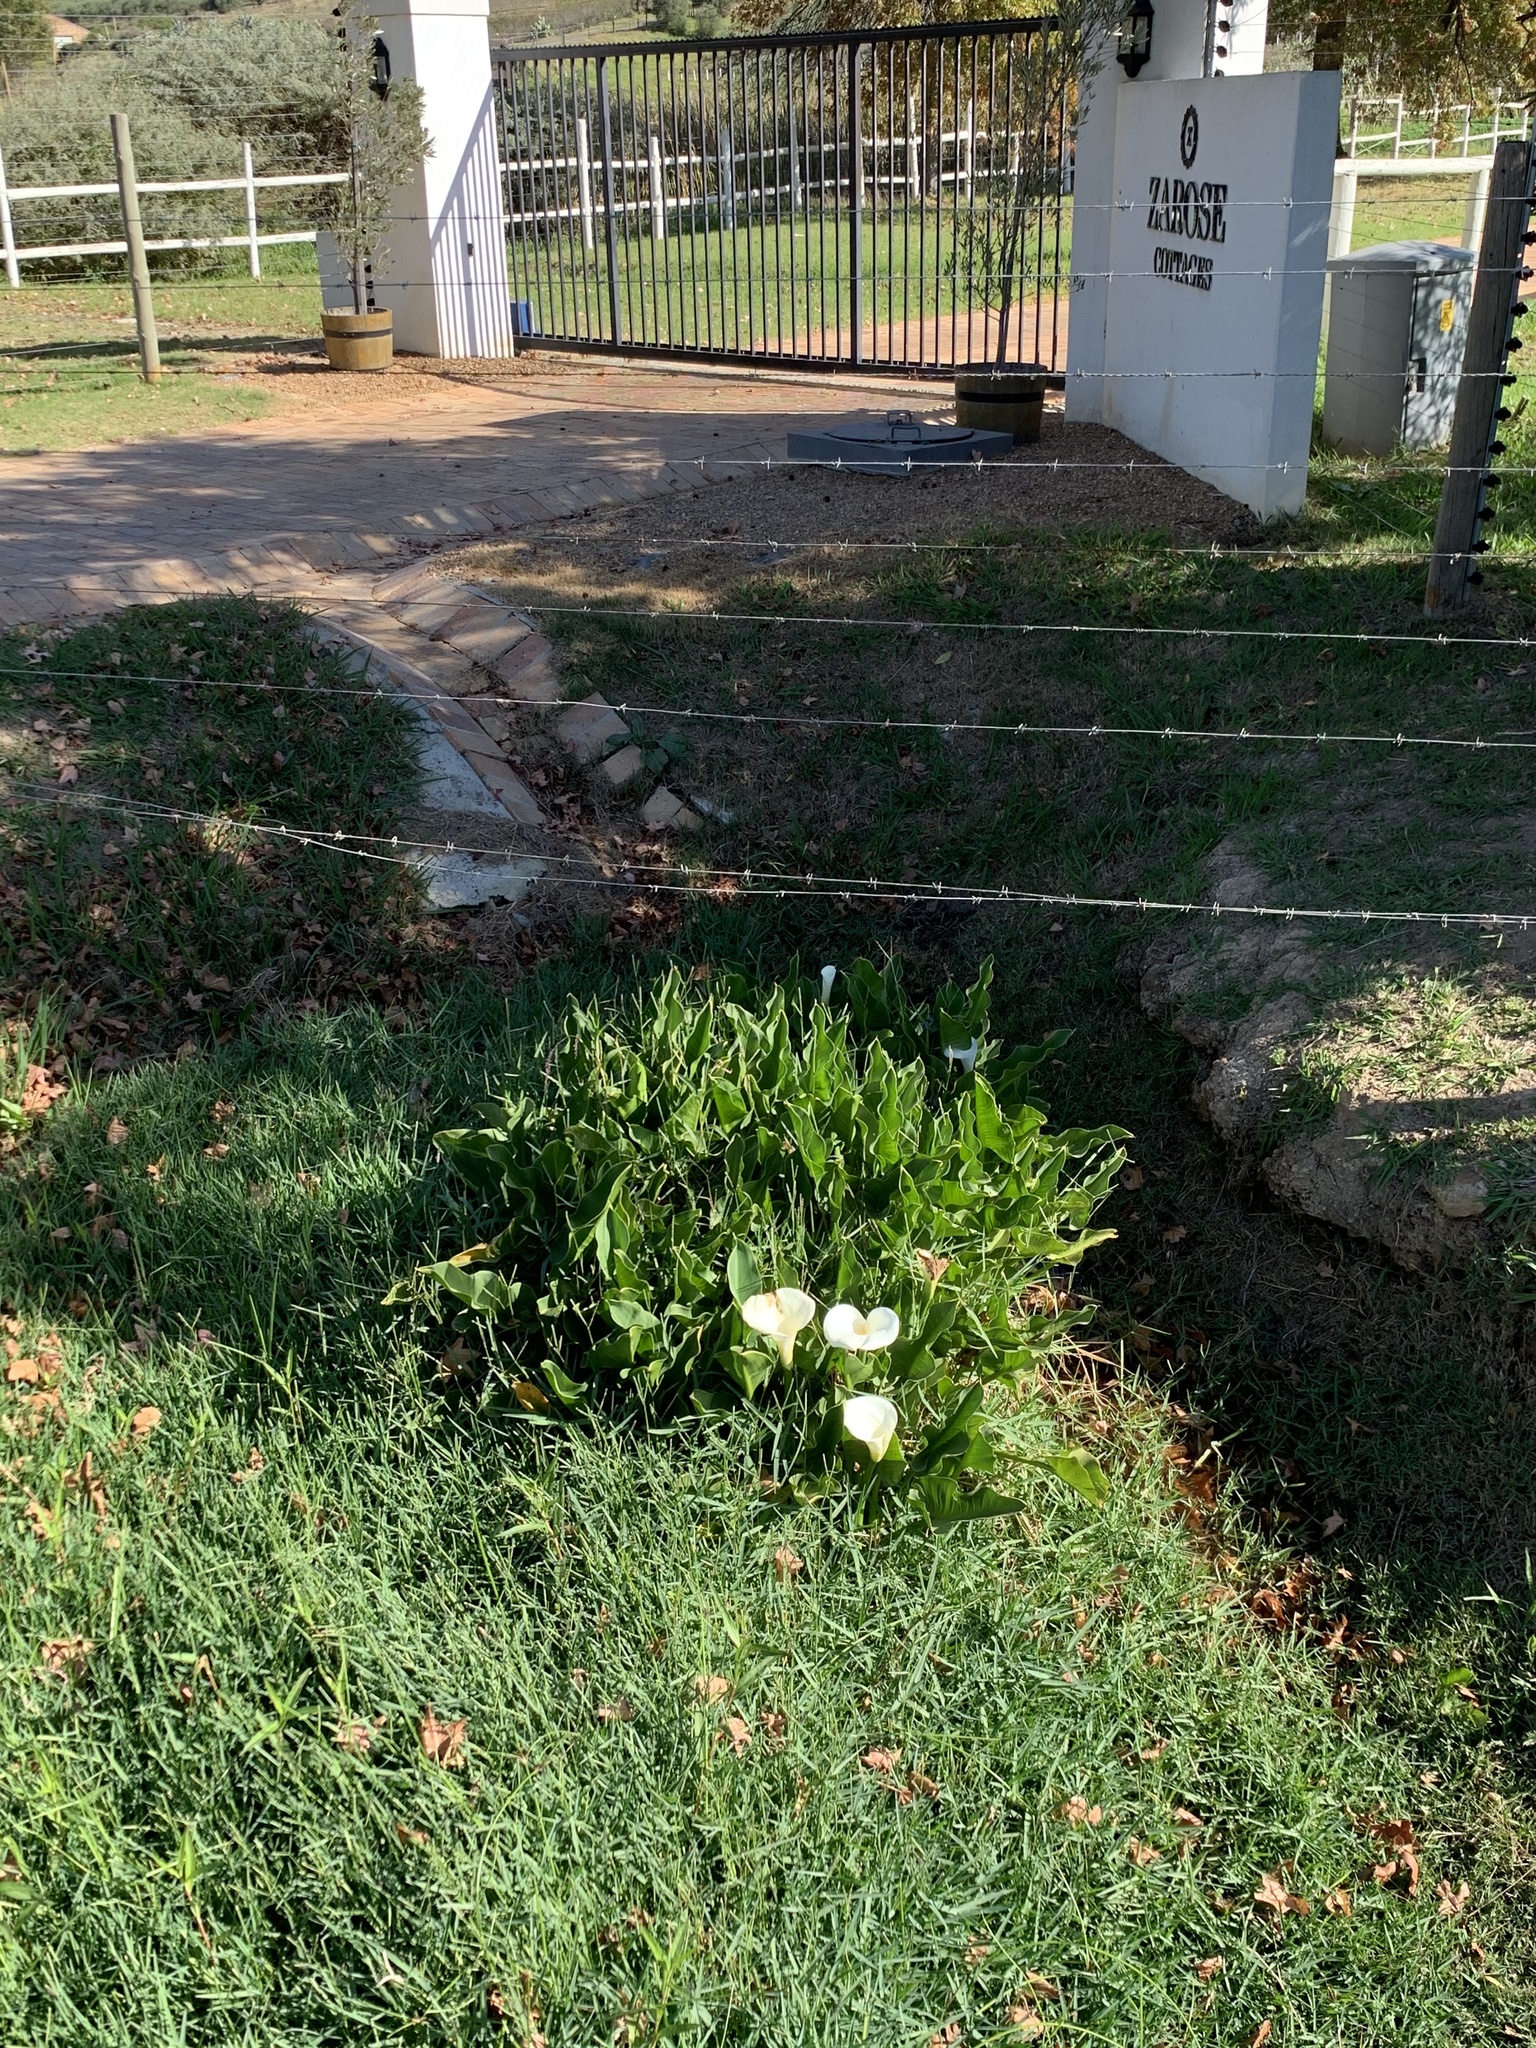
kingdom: Plantae
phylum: Tracheophyta
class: Liliopsida
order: Alismatales
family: Araceae
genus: Zantedeschia
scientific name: Zantedeschia aethiopica
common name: Altar-lily
